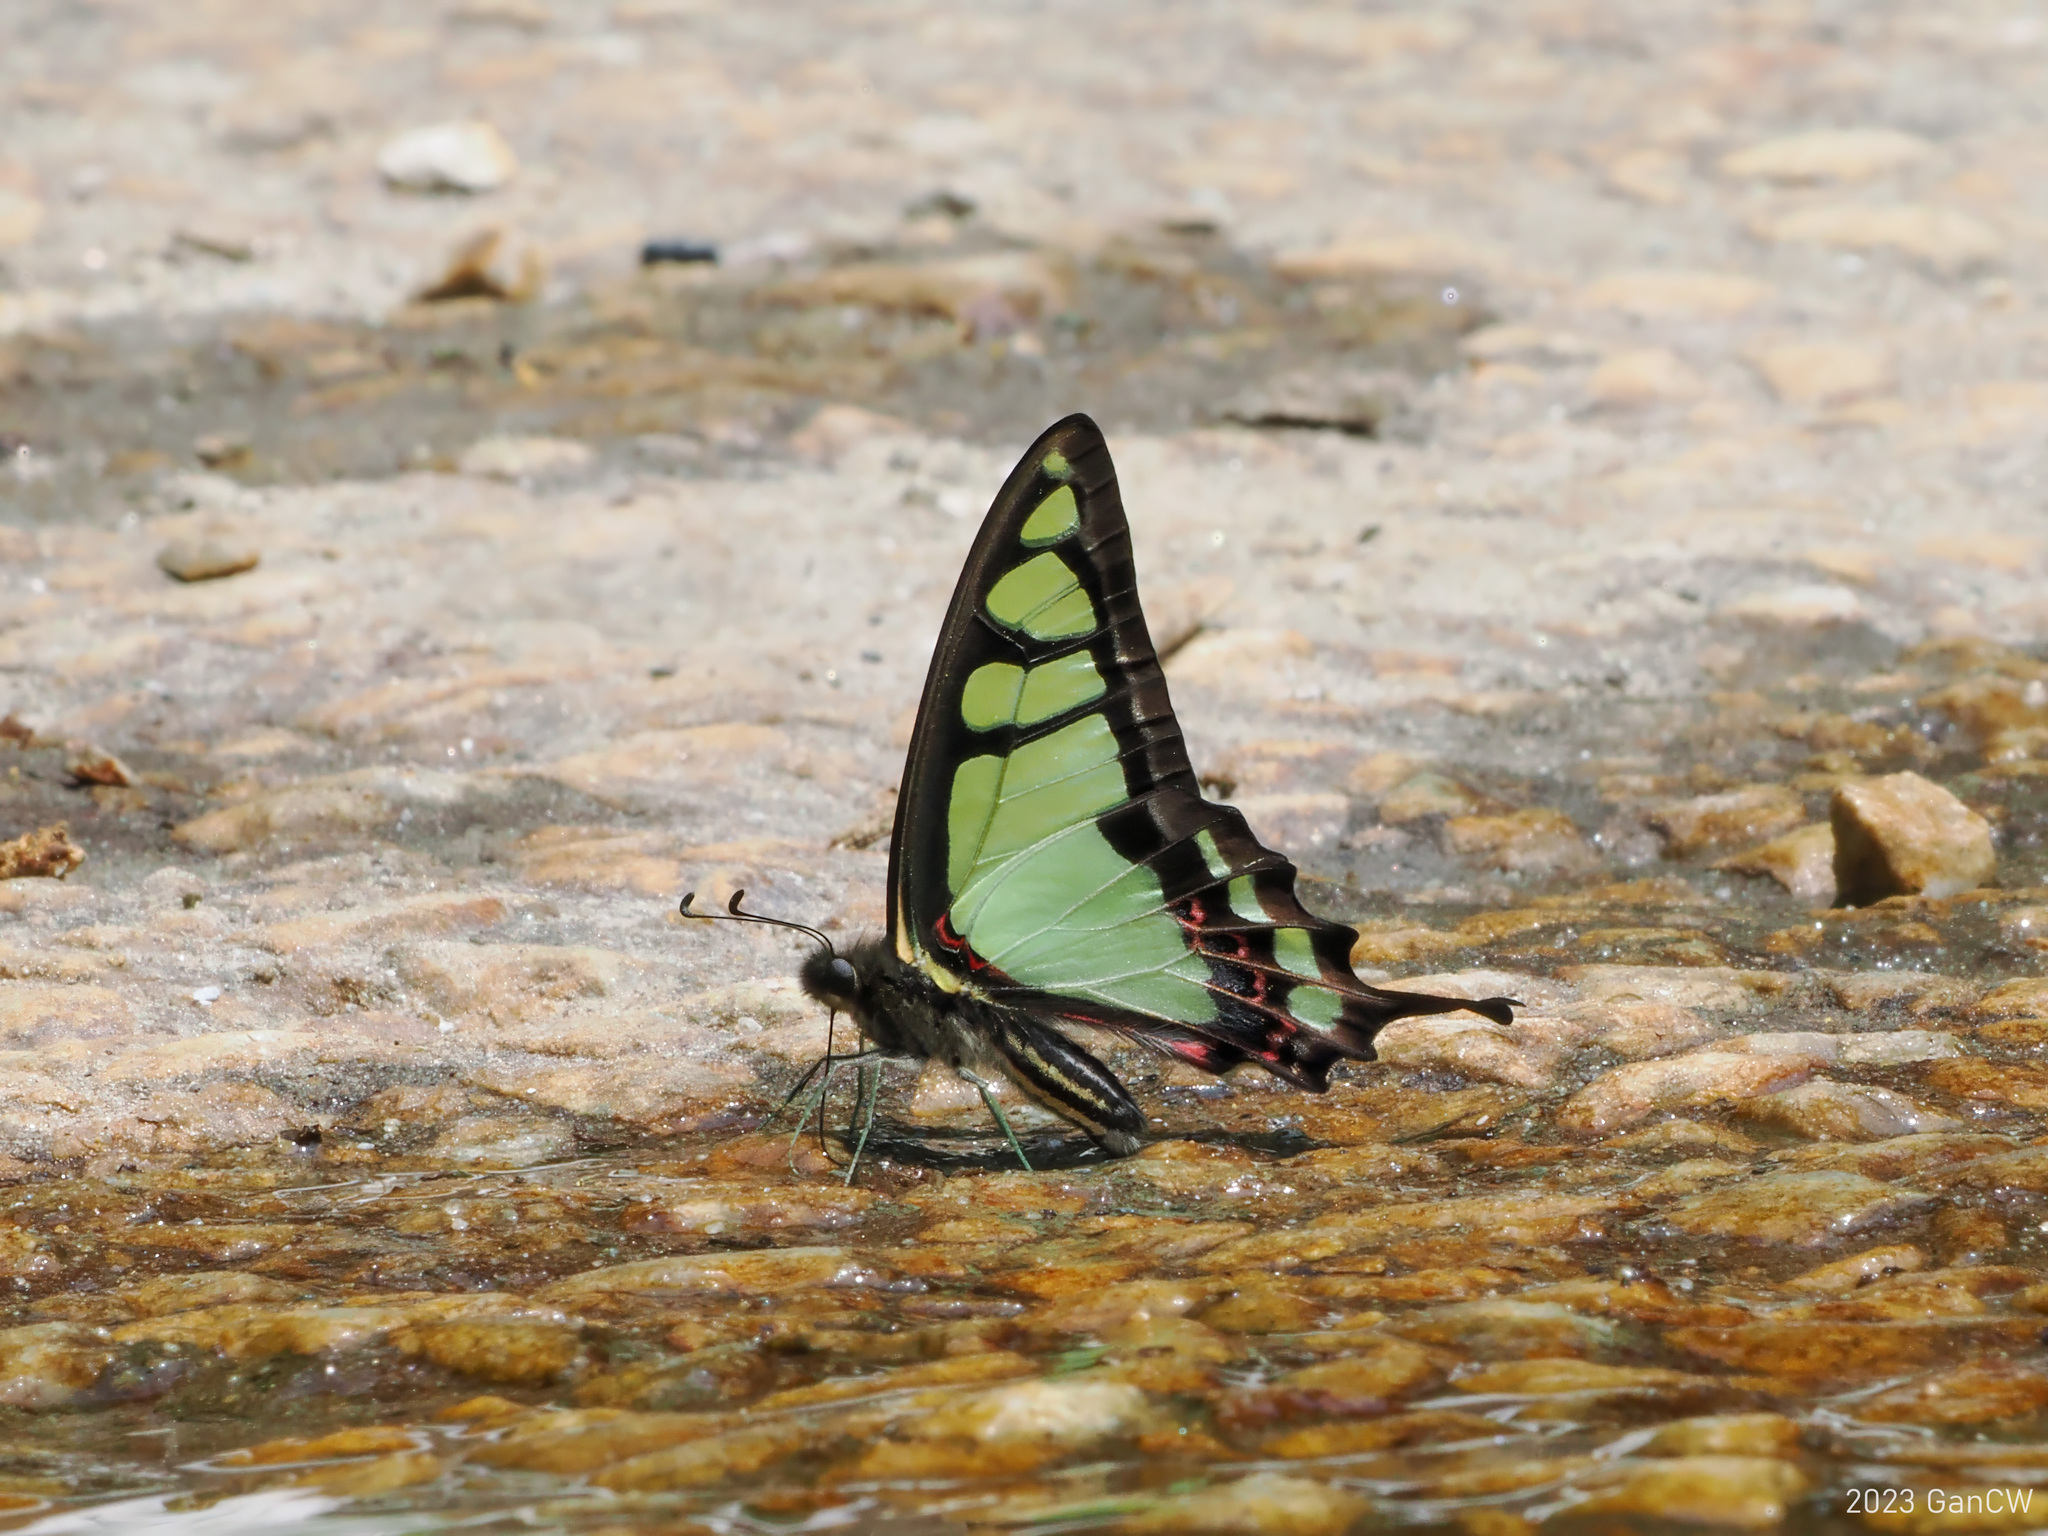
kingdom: Animalia
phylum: Arthropoda
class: Insecta
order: Lepidoptera
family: Papilionidae
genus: Graphium
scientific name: Graphium cloanthus
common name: Glassy bluebottle
